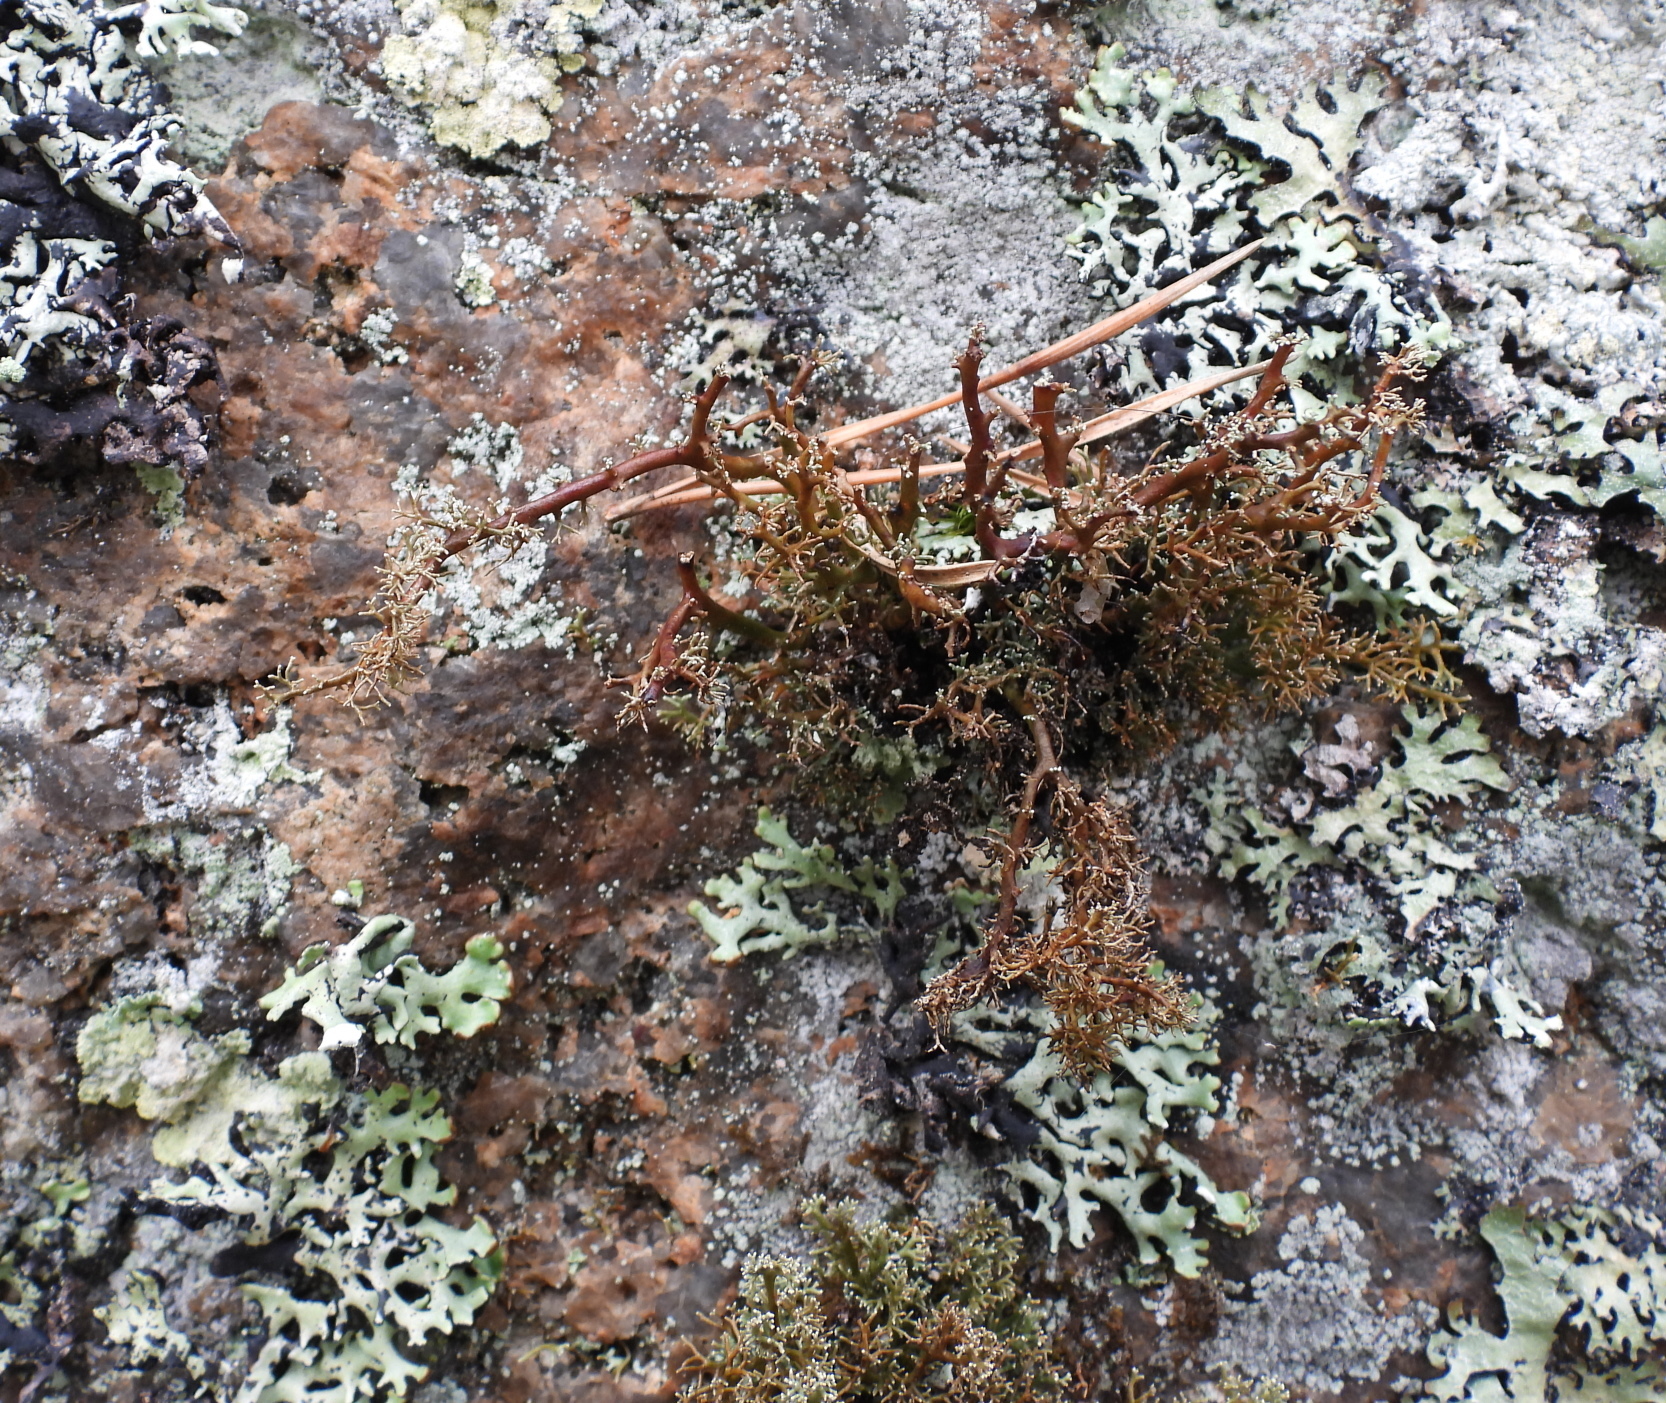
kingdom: Fungi
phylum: Ascomycota
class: Lecanoromycetes
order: Lecanorales
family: Sphaerophoraceae
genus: Sphaerophorus
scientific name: Sphaerophorus globosus
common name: Globe ball lichen
